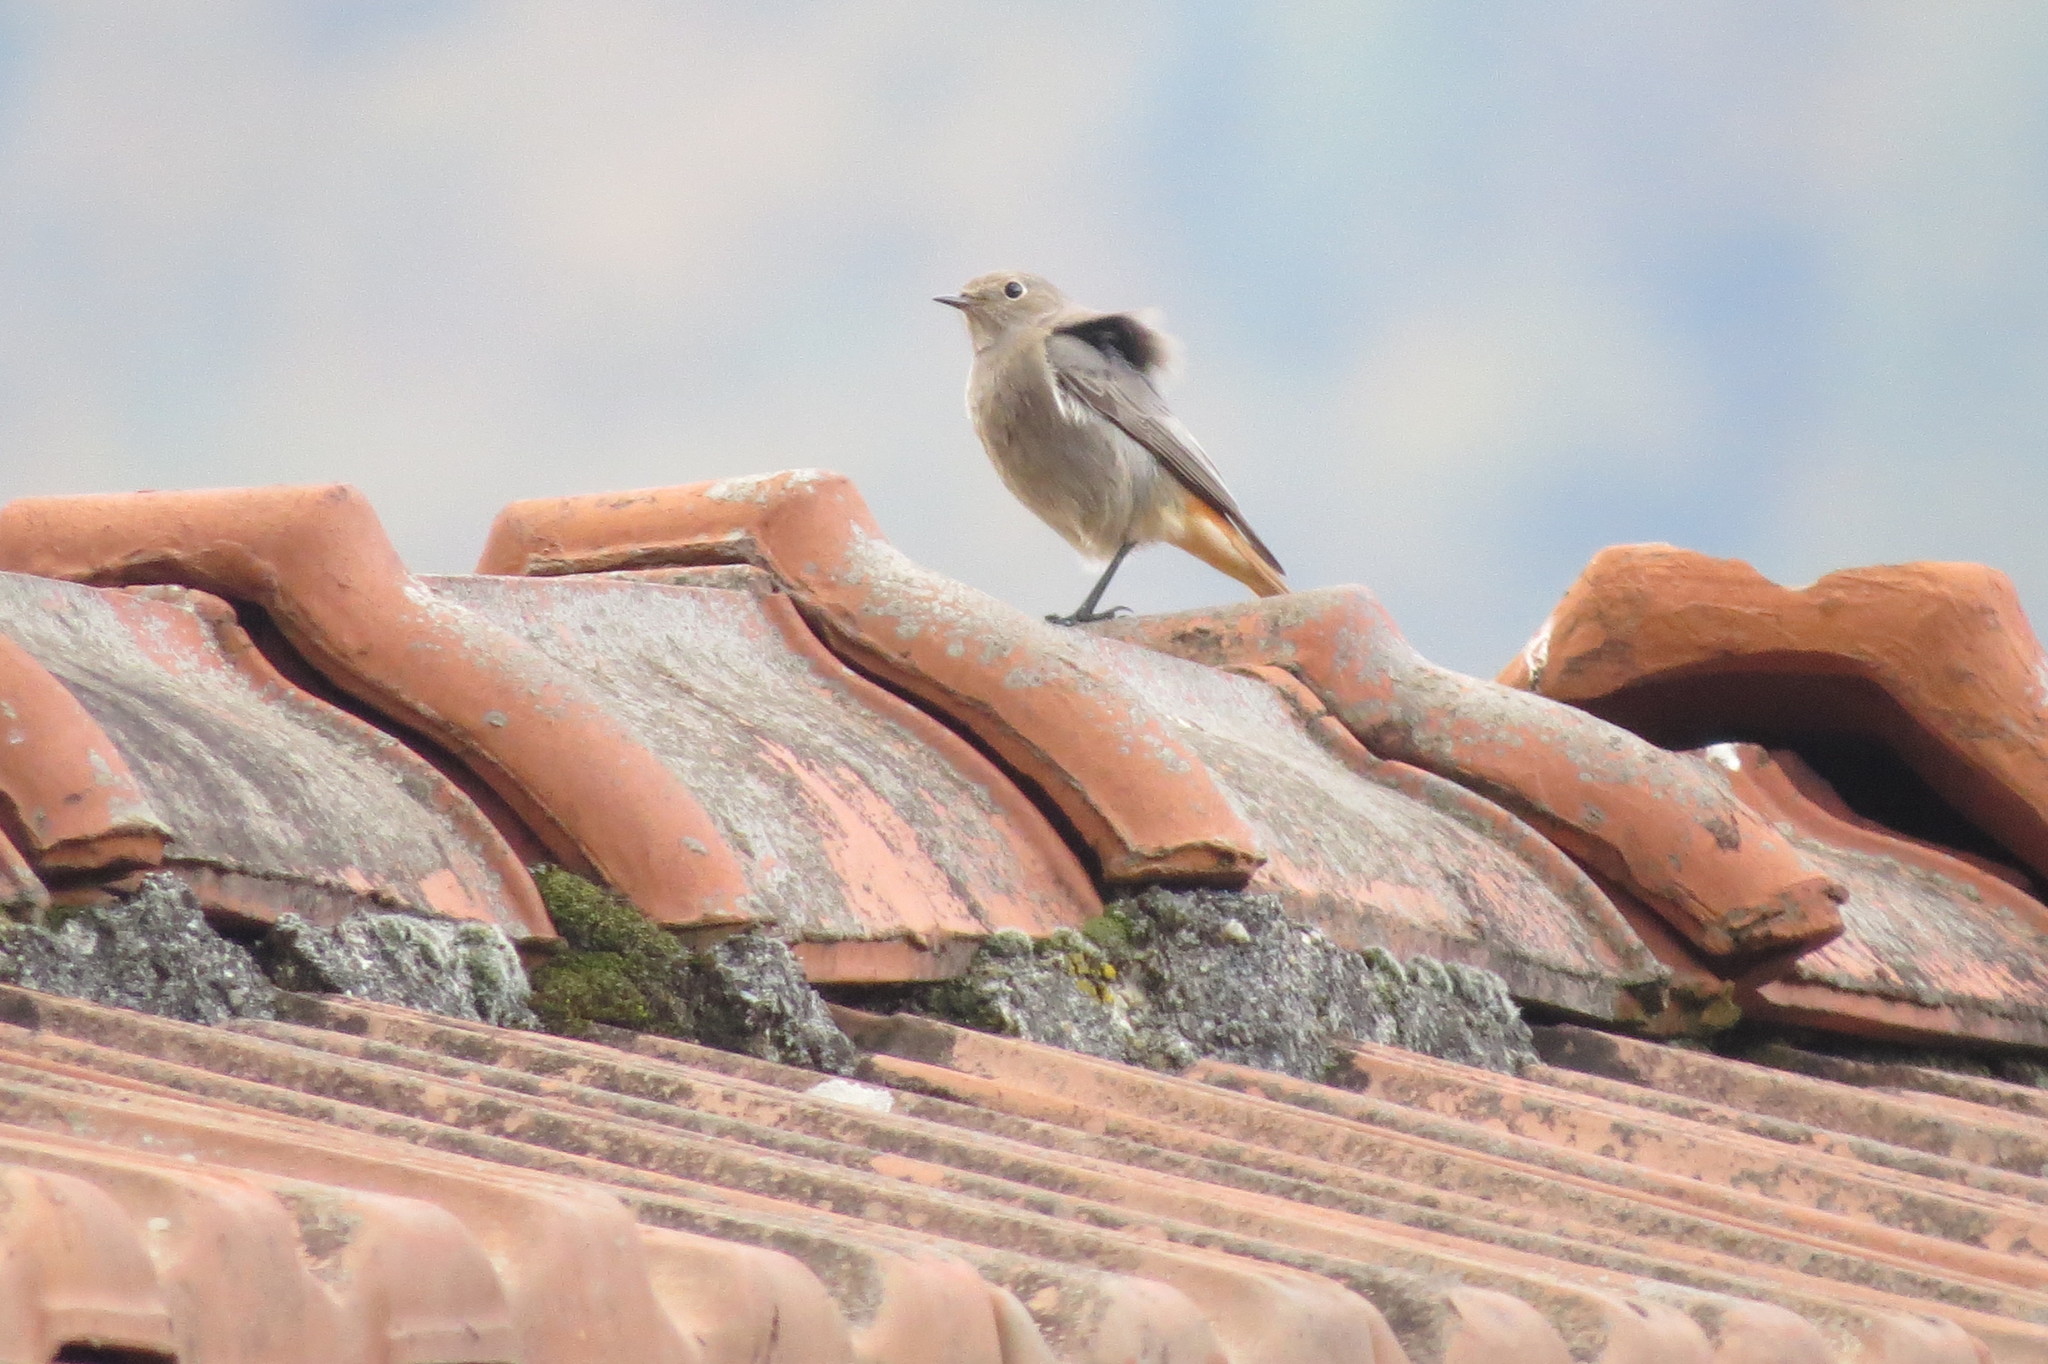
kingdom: Animalia
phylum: Chordata
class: Aves
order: Passeriformes
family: Muscicapidae
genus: Phoenicurus
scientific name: Phoenicurus ochruros
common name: Black redstart
